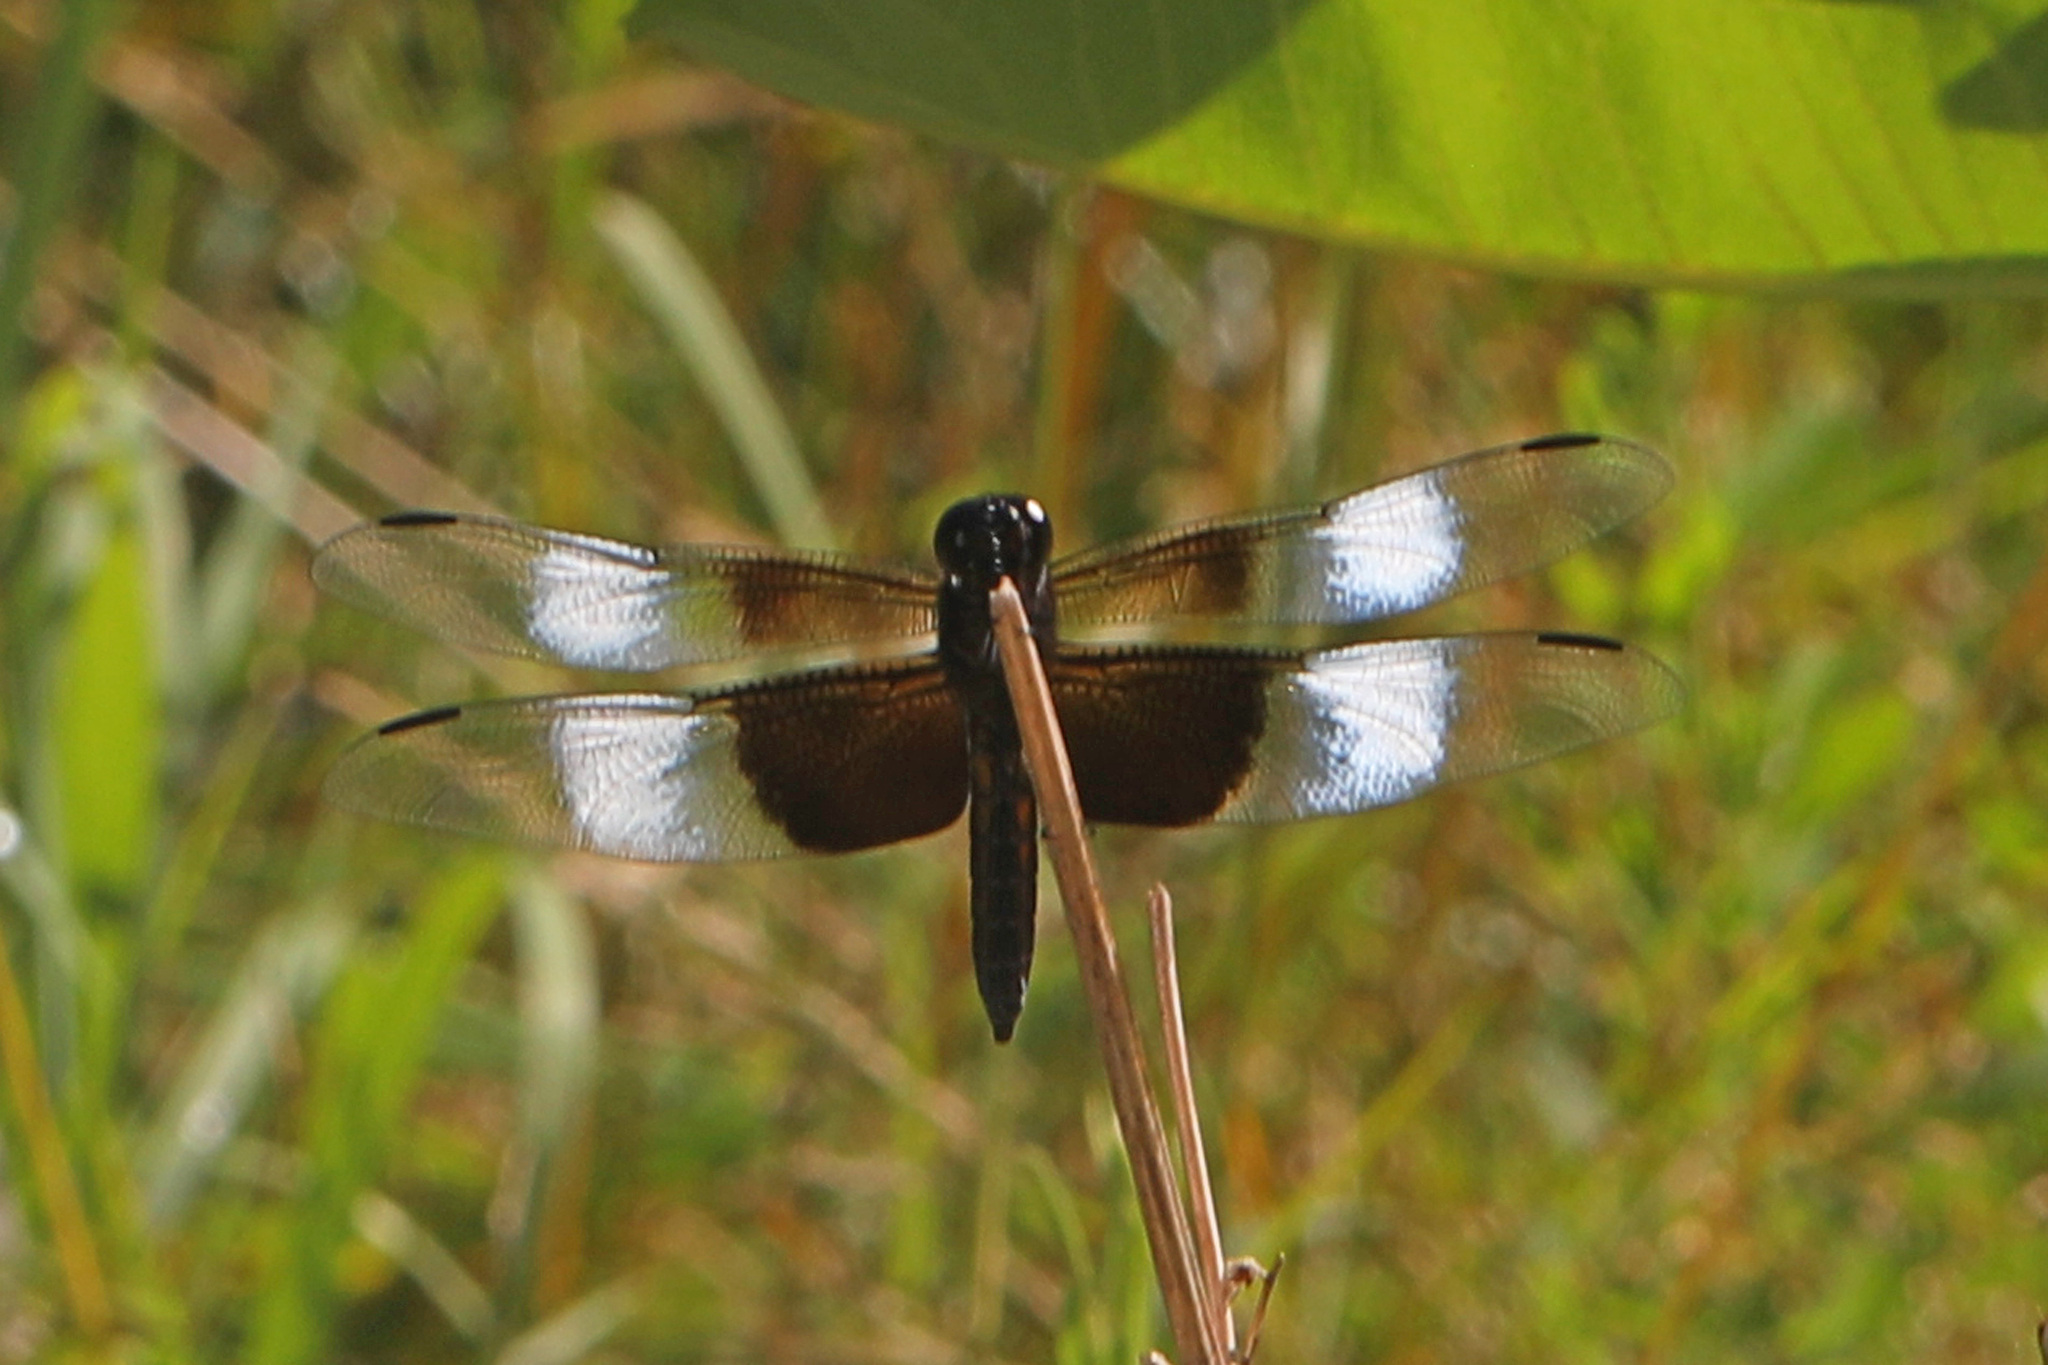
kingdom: Animalia
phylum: Arthropoda
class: Insecta
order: Odonata
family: Libellulidae
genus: Libellula
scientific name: Libellula luctuosa
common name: Widow skimmer
